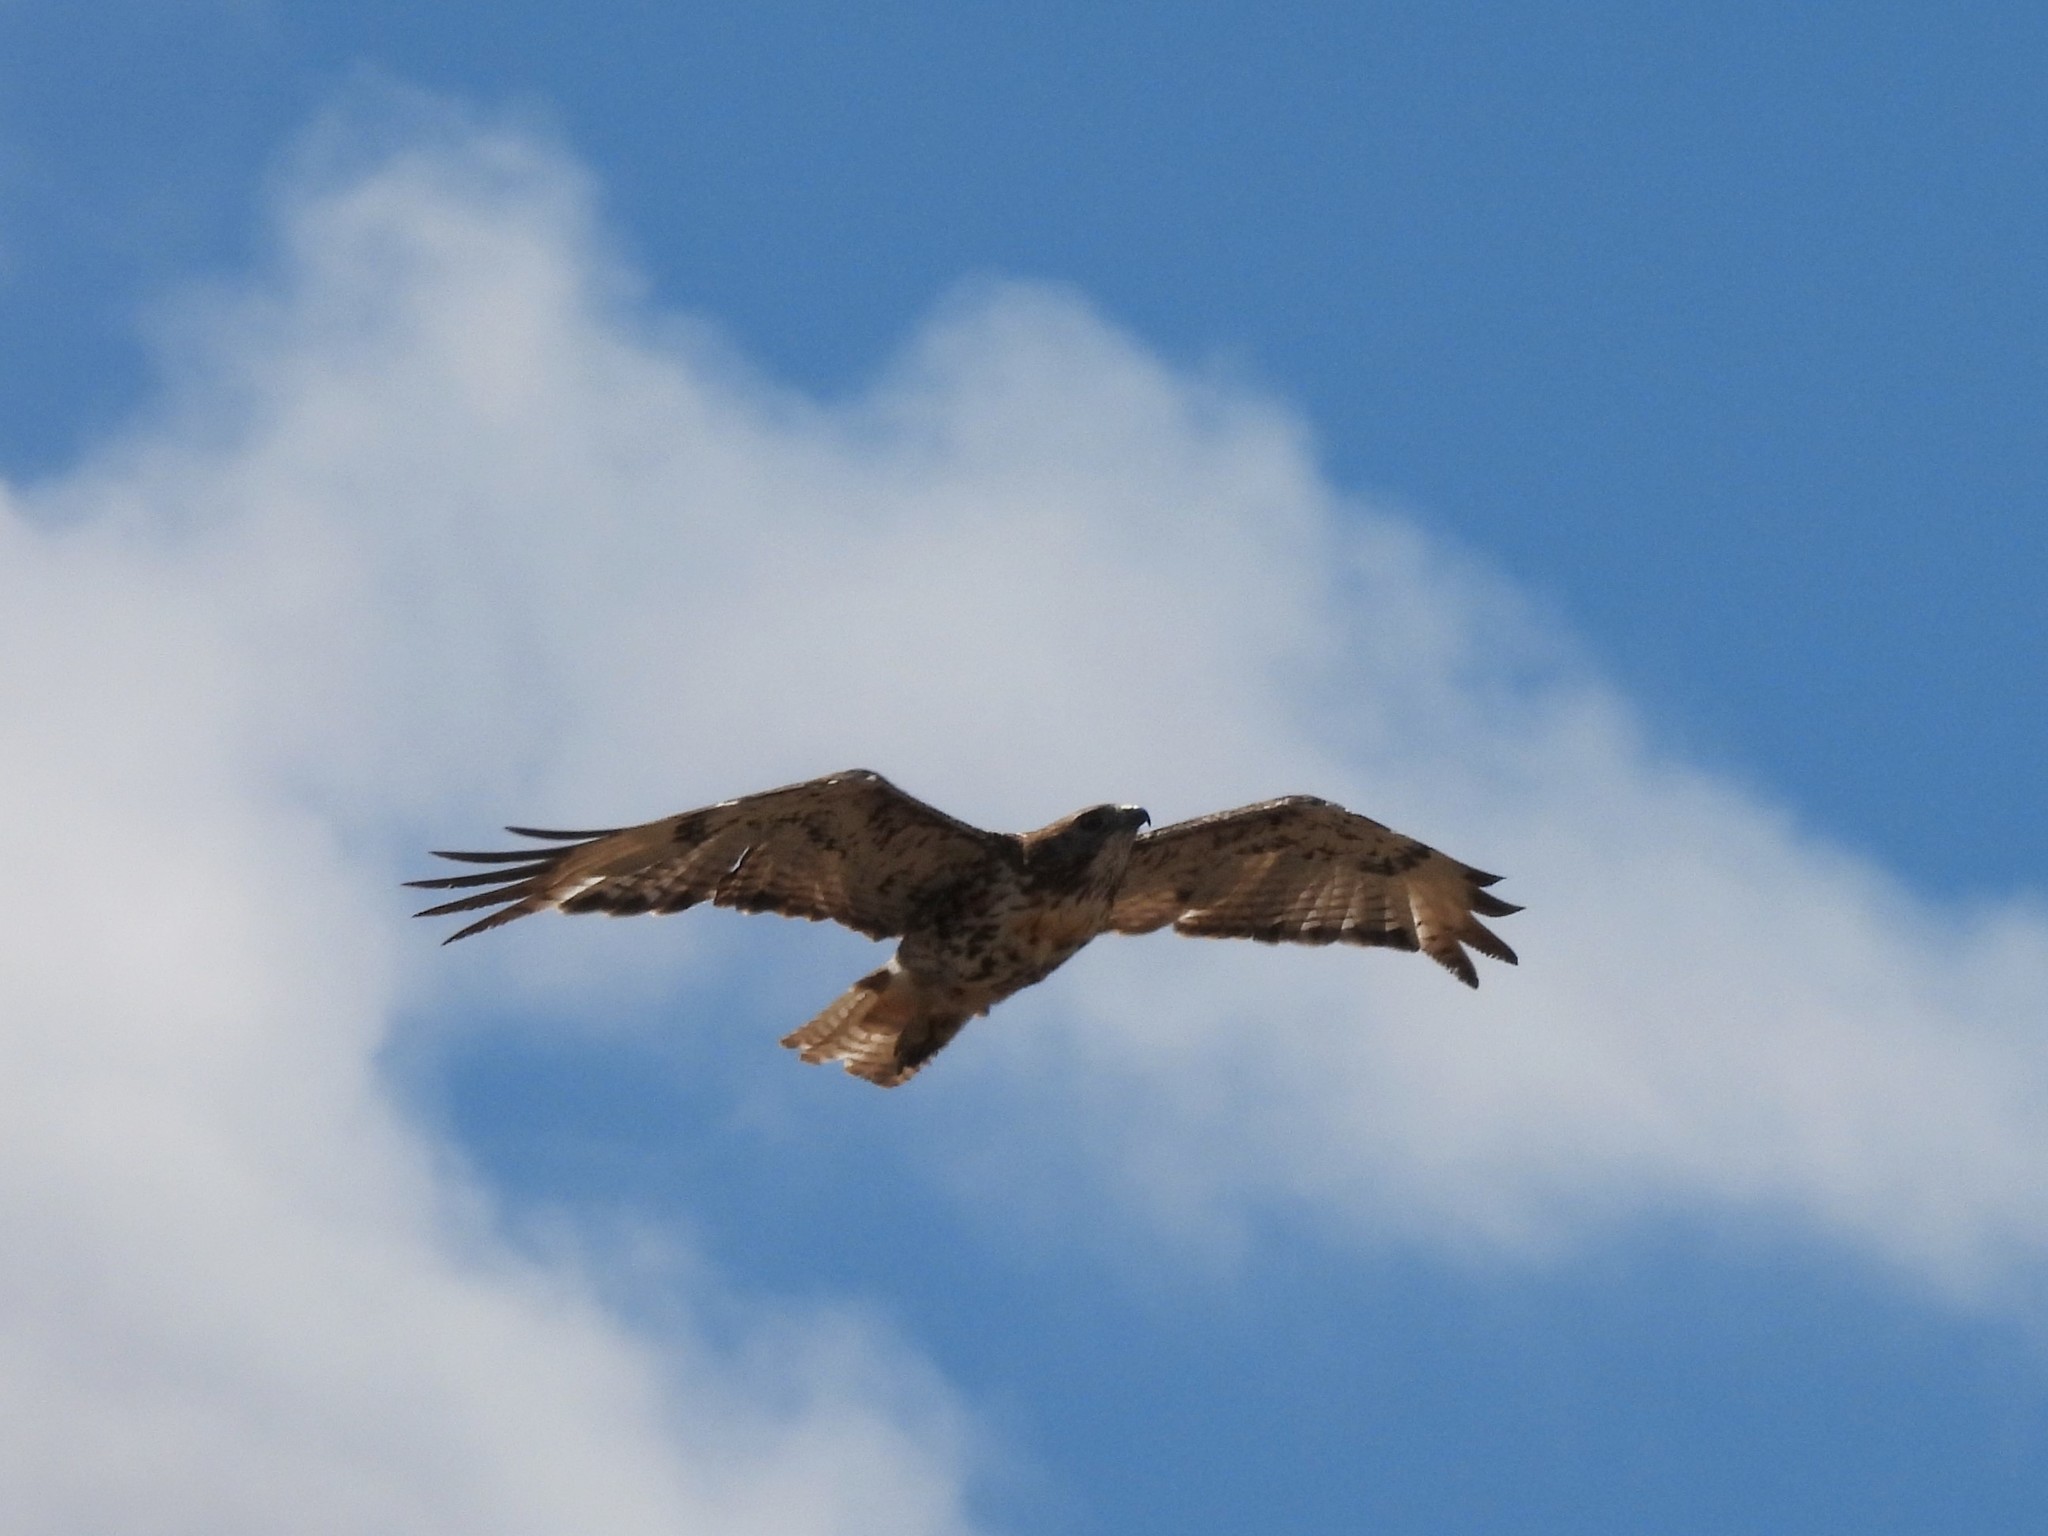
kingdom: Animalia
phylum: Chordata
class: Aves
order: Accipitriformes
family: Accipitridae
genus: Buteo
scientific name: Buteo jamaicensis
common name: Red-tailed hawk
